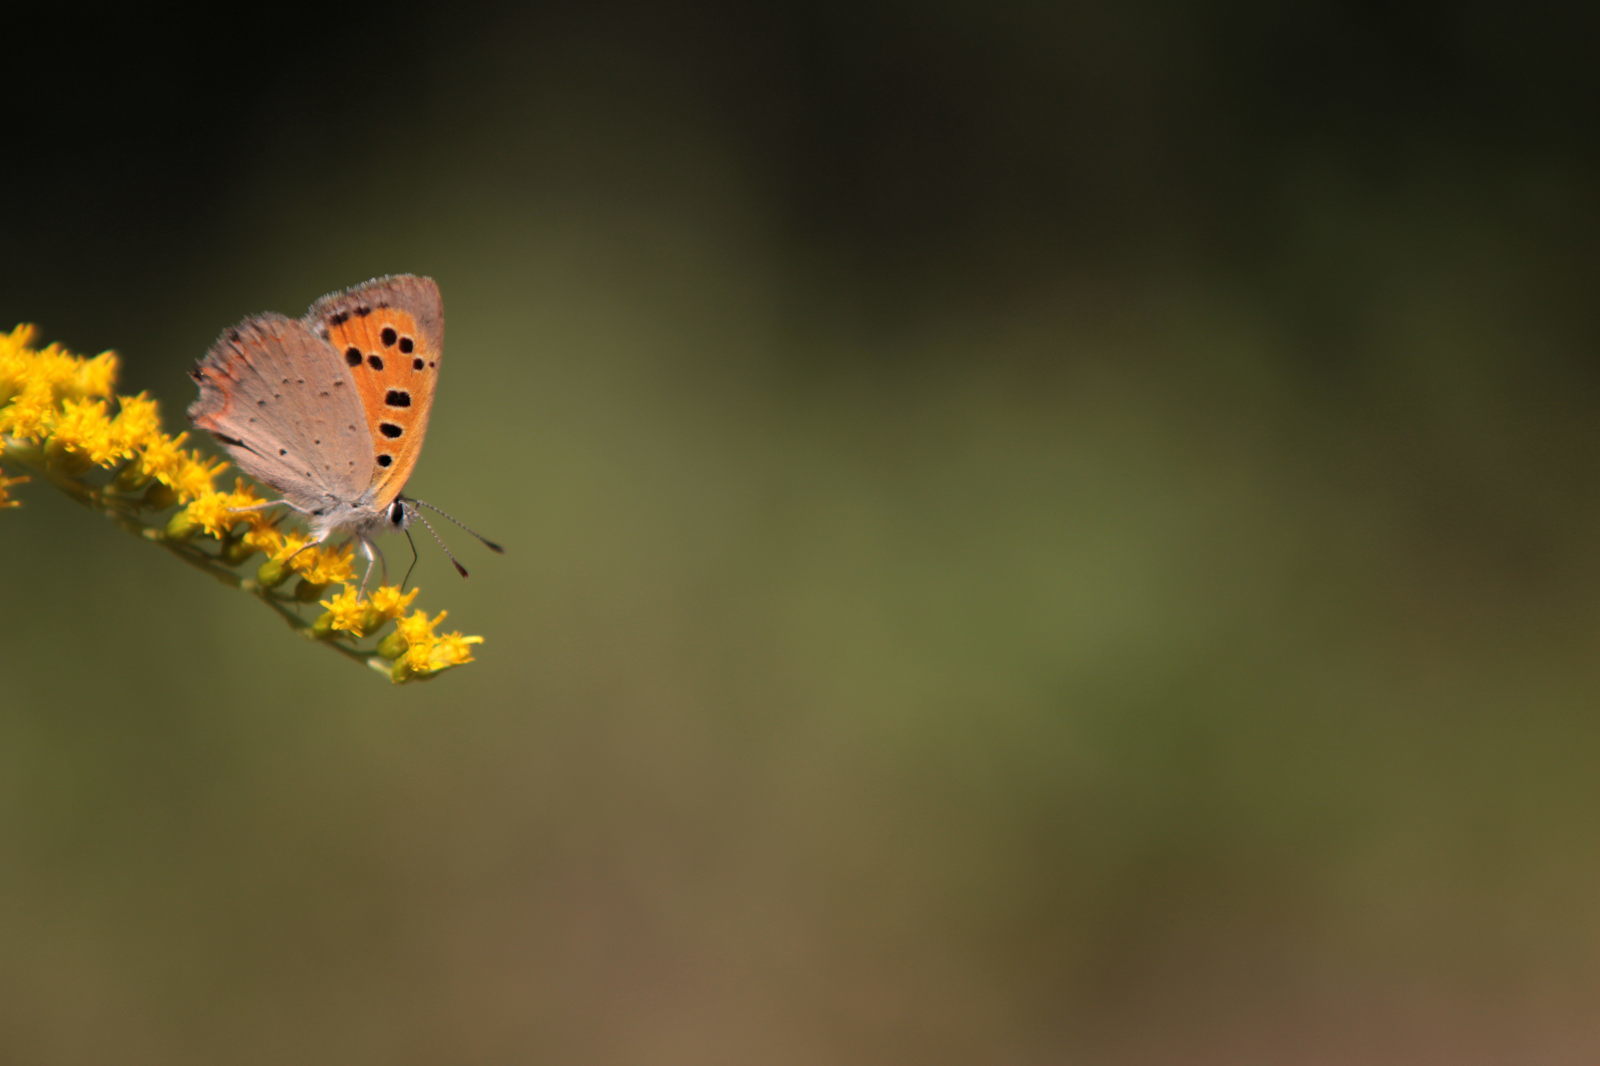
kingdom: Animalia
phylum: Arthropoda
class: Insecta
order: Lepidoptera
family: Lycaenidae
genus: Lycaena
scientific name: Lycaena phlaeas
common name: Small copper
